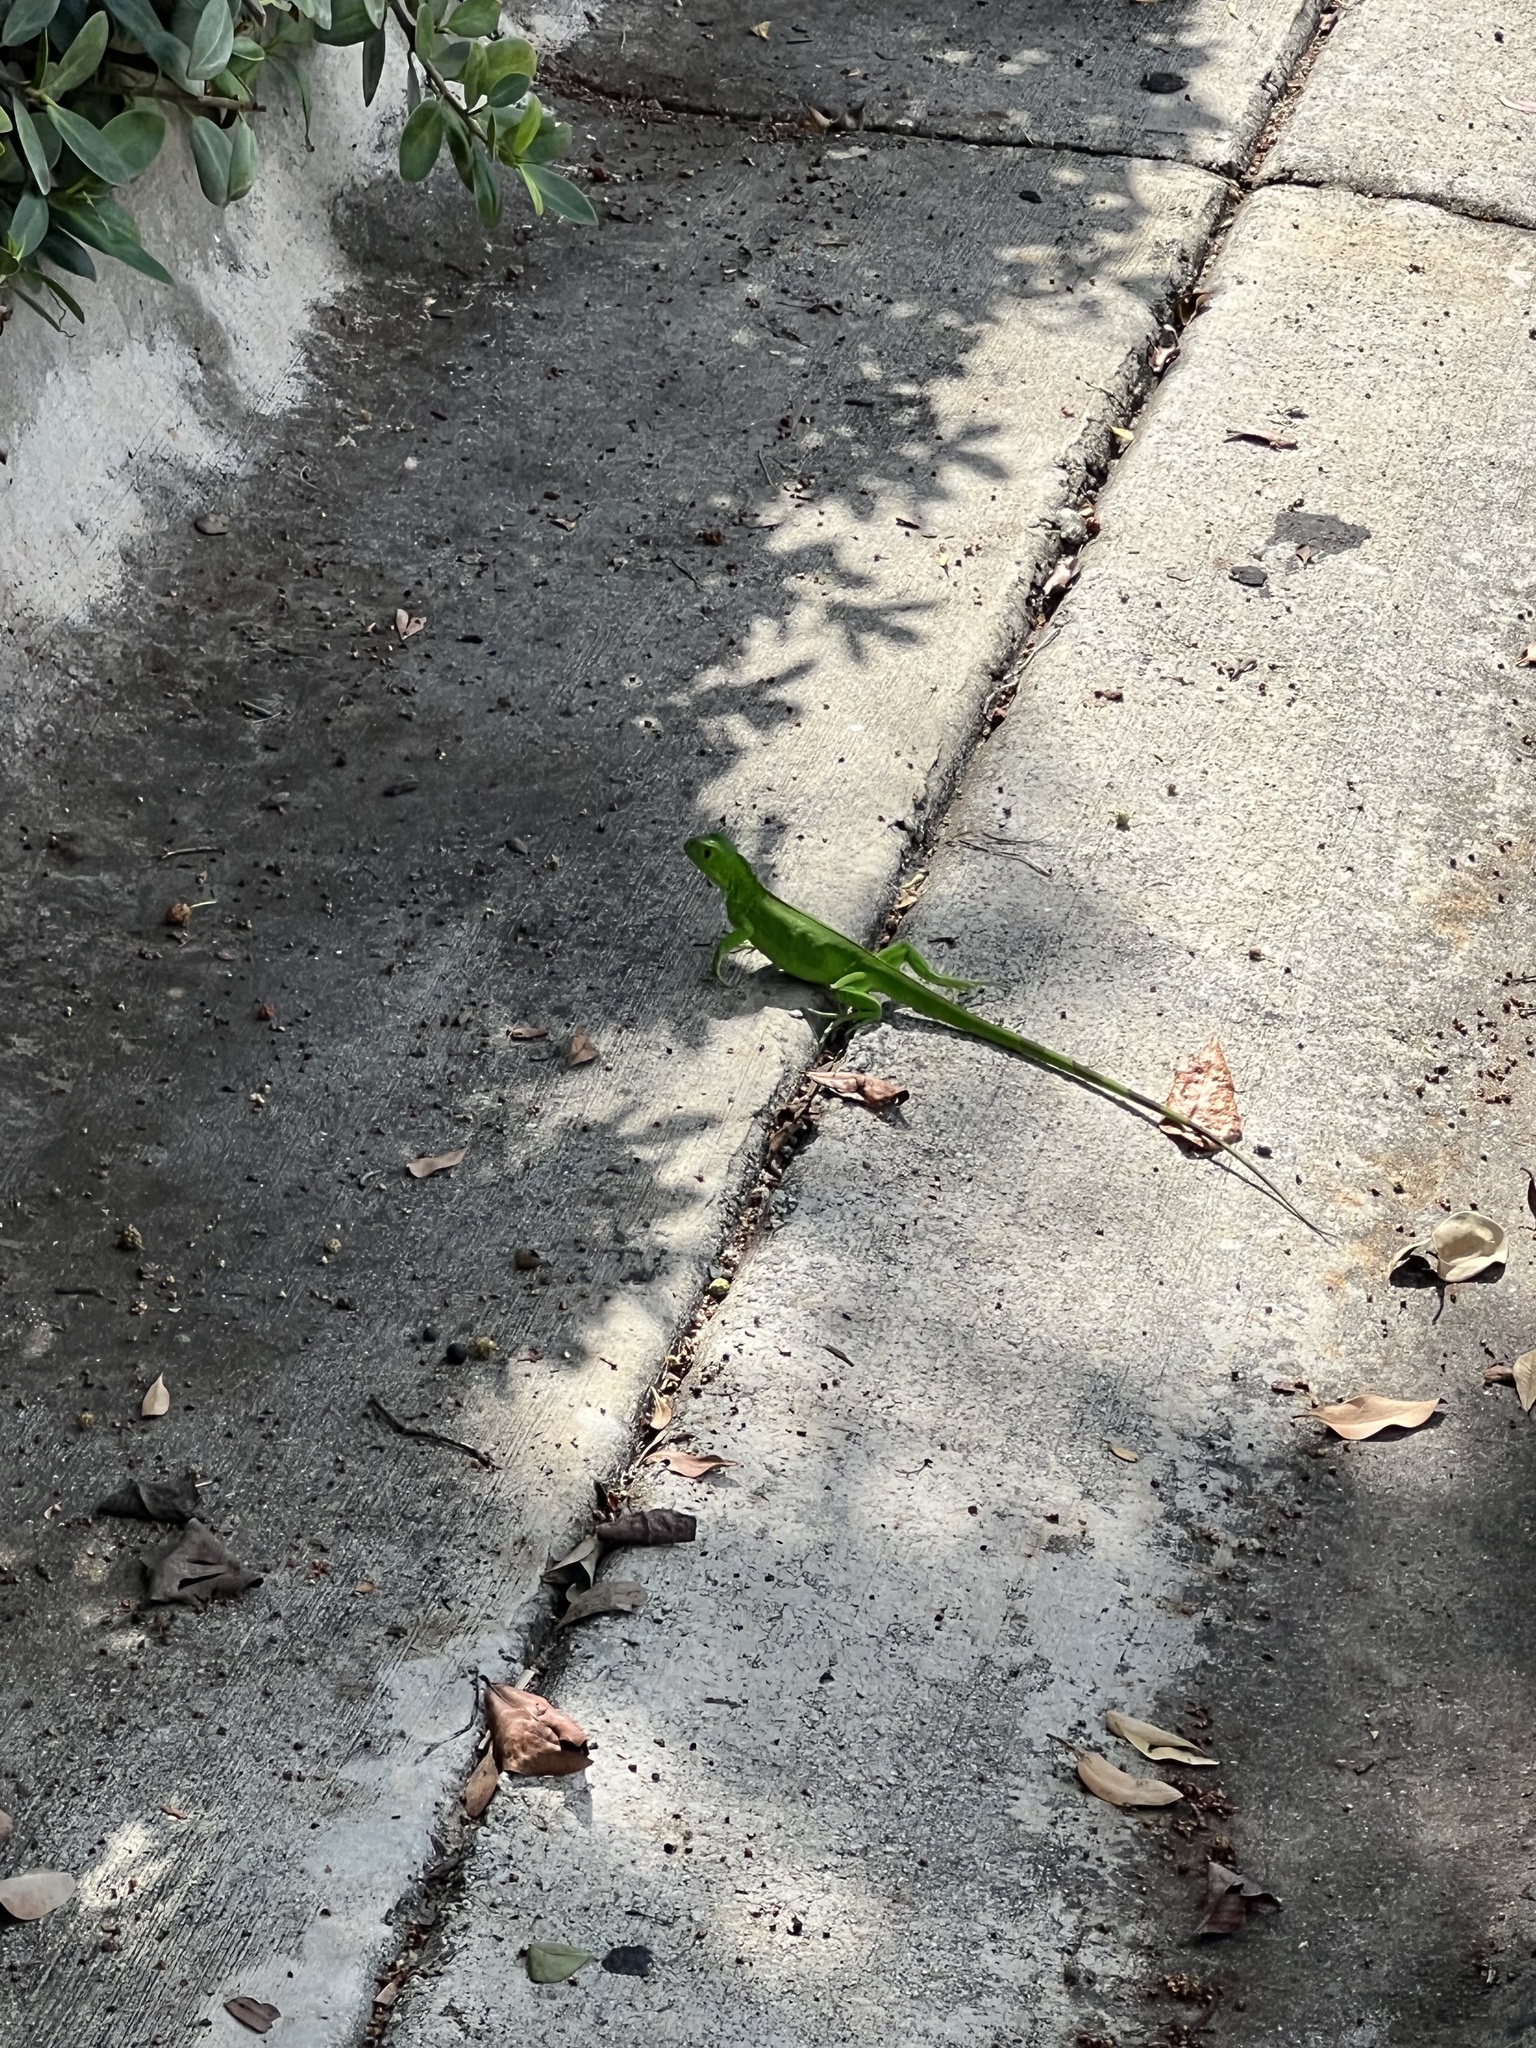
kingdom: Animalia
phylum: Chordata
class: Squamata
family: Iguanidae
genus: Iguana
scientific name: Iguana iguana
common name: Green iguana
